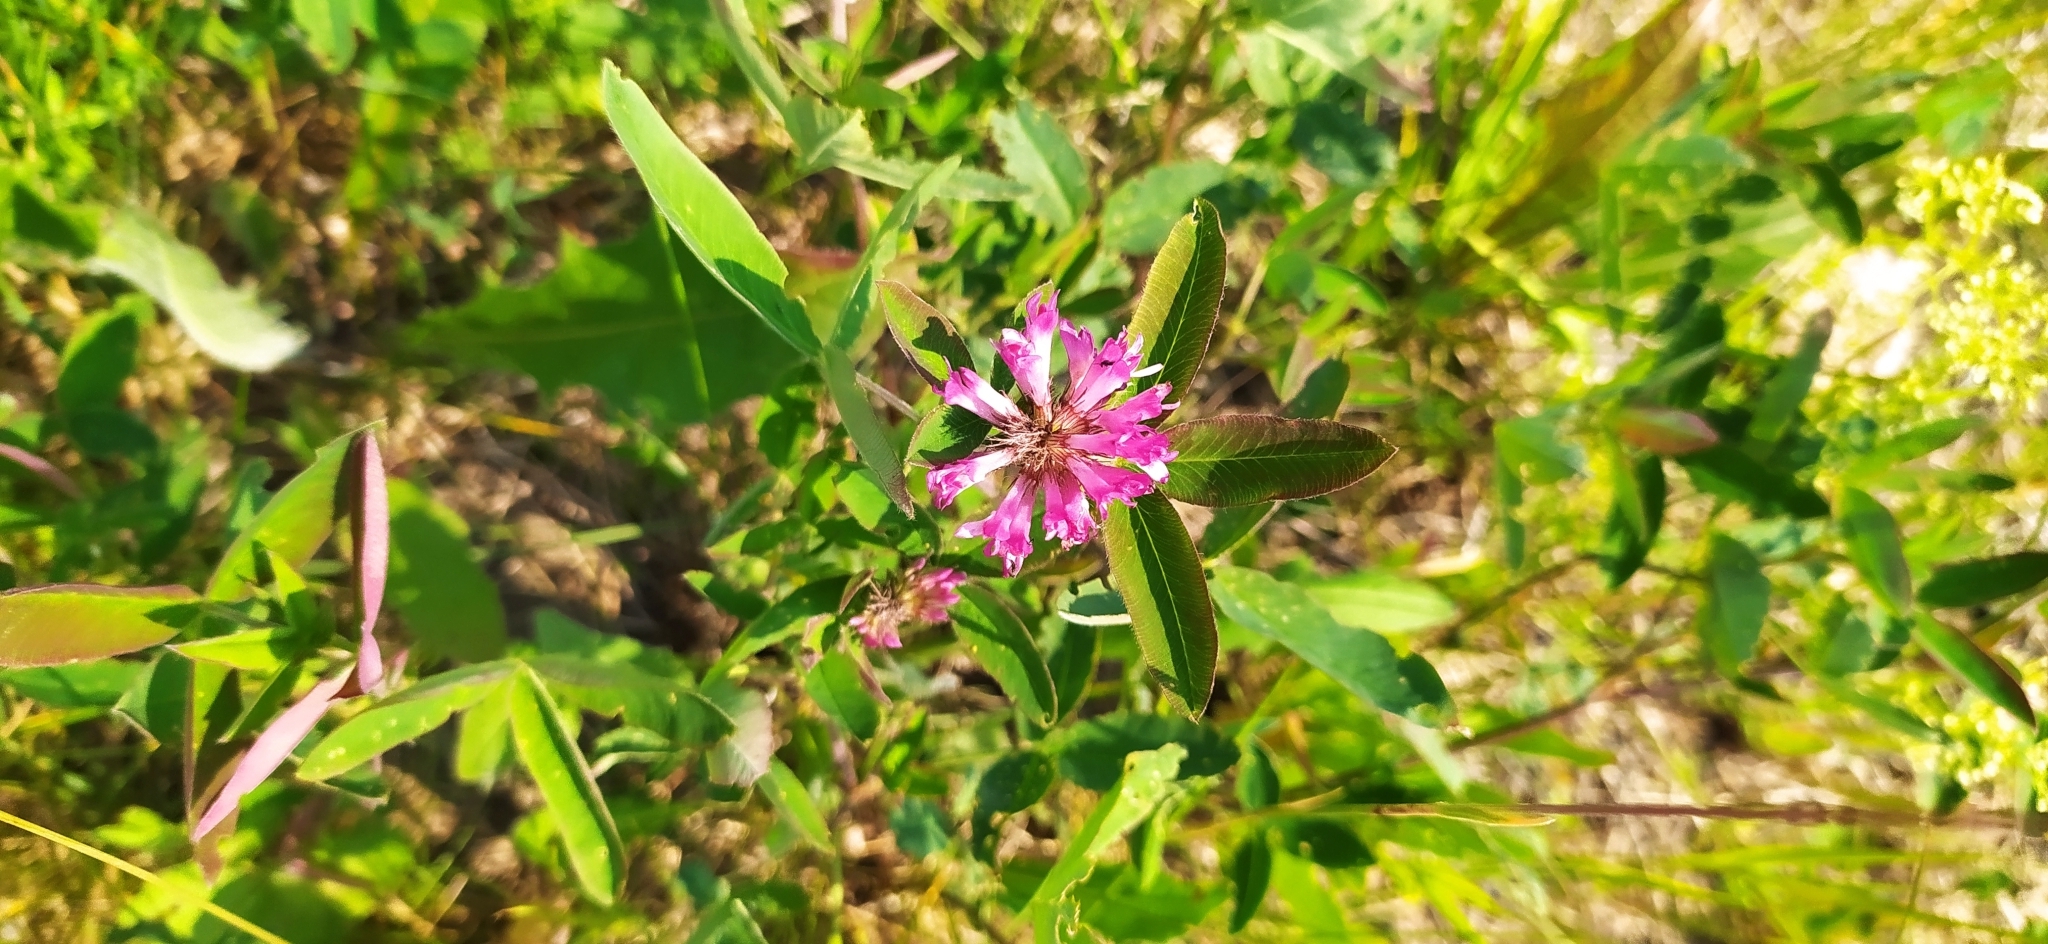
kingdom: Plantae
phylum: Tracheophyta
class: Magnoliopsida
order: Fabales
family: Fabaceae
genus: Trifolium
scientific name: Trifolium medium
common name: Zigzag clover
